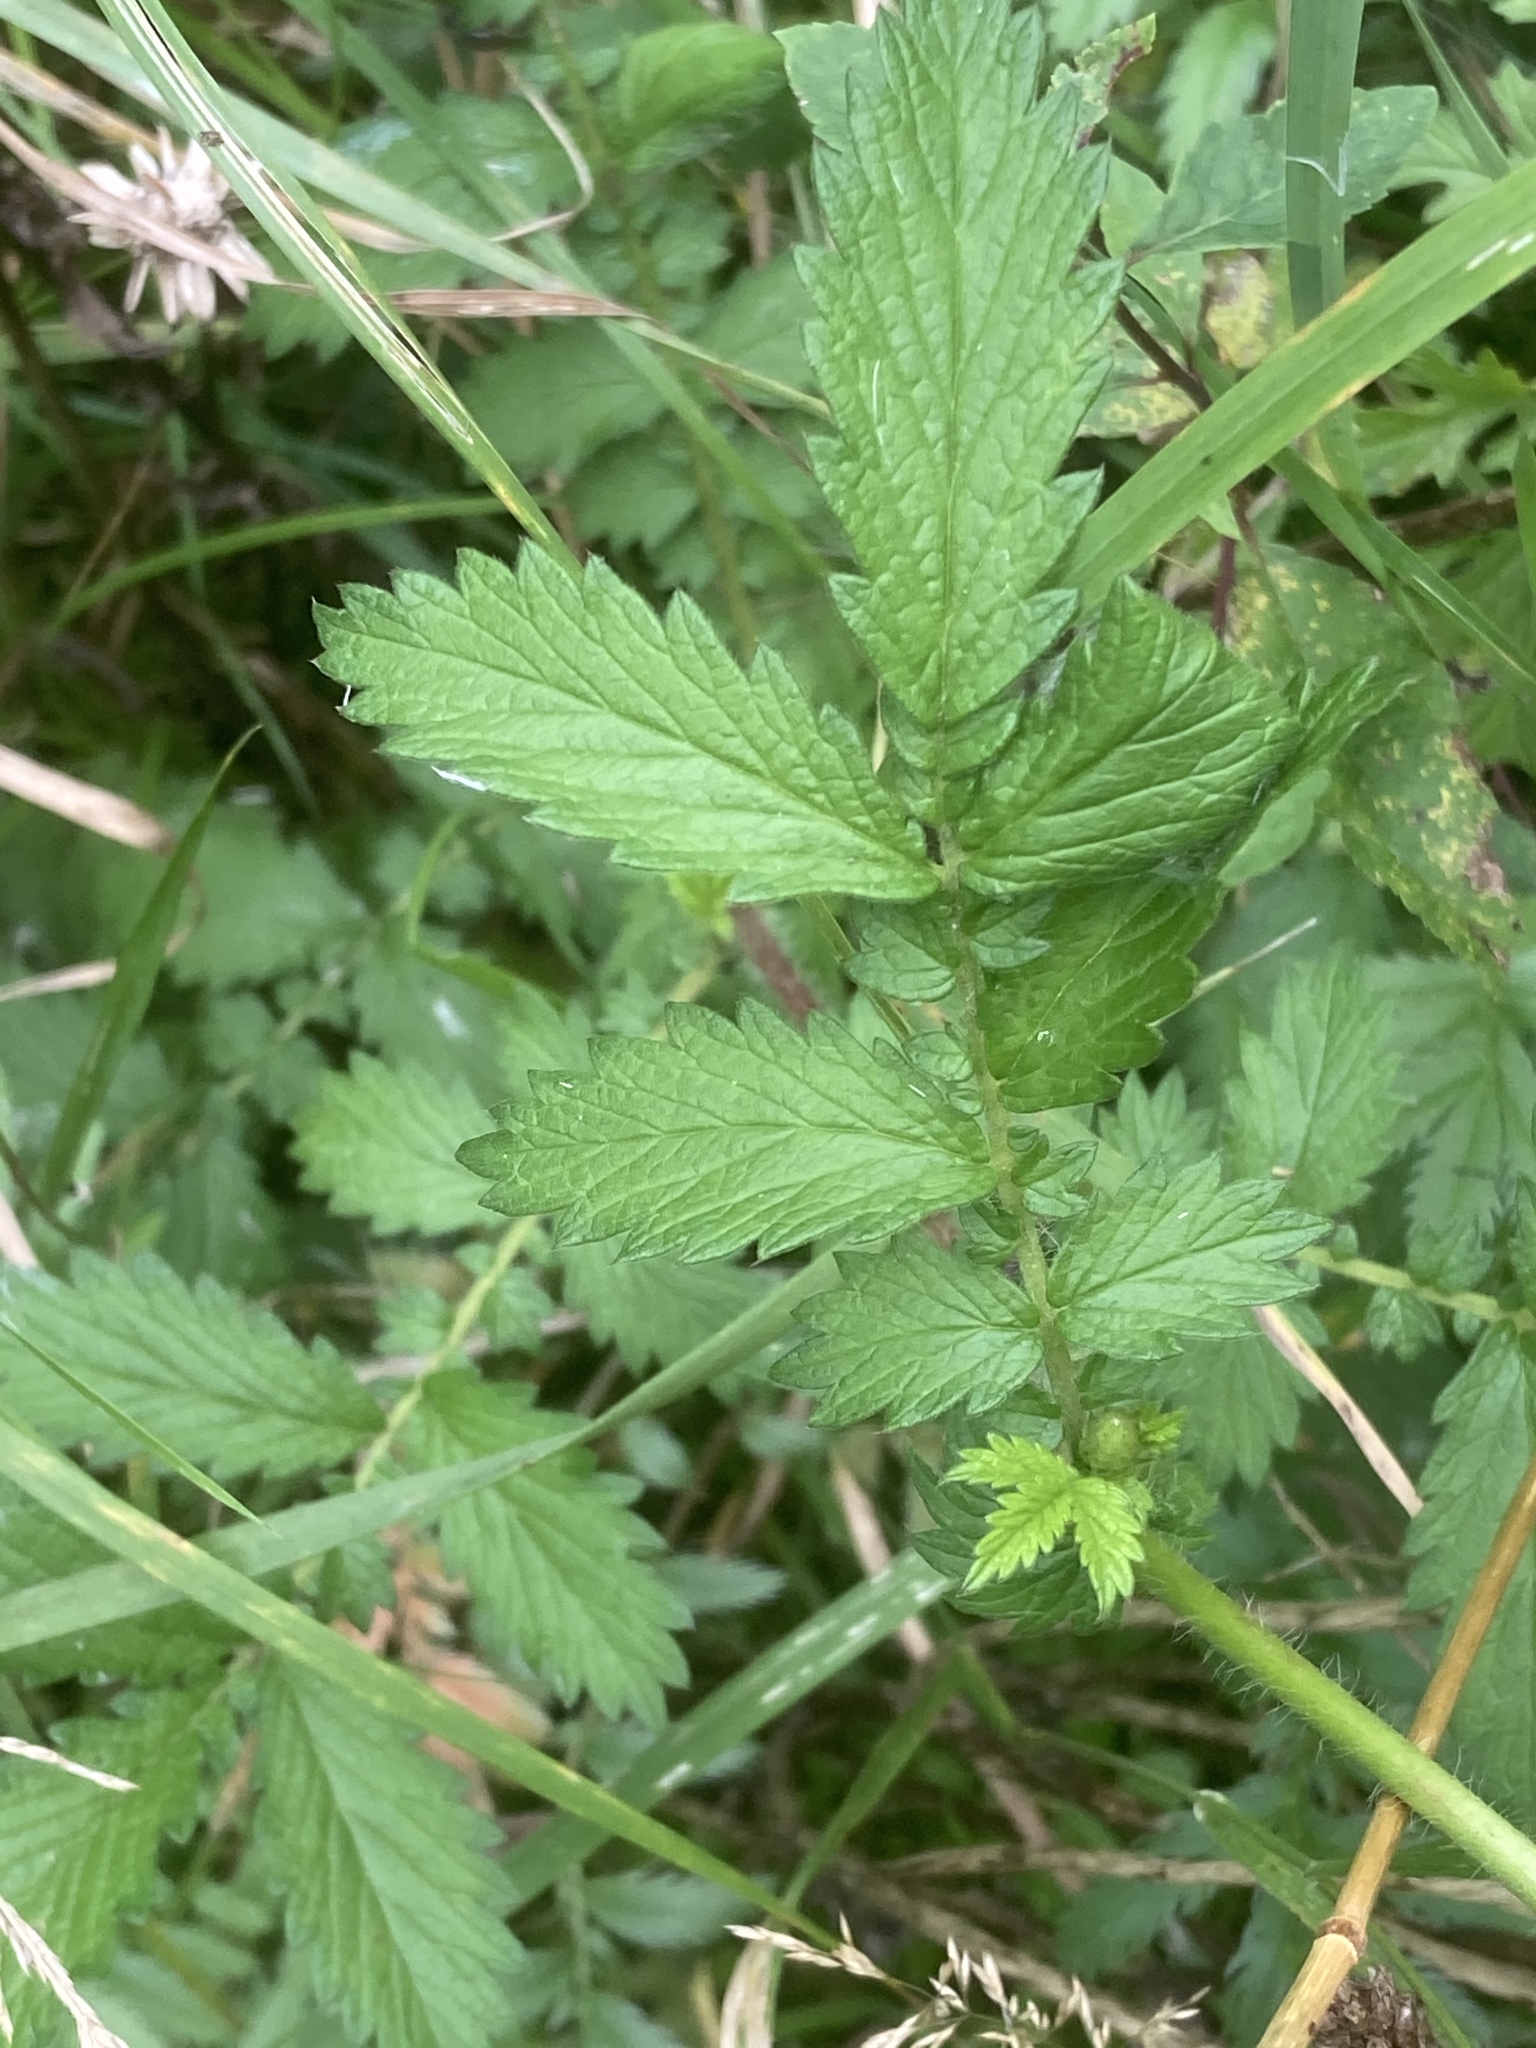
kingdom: Plantae
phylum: Tracheophyta
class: Magnoliopsida
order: Rosales
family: Rosaceae
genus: Agrimonia
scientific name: Agrimonia eupatoria
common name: Agrimony
